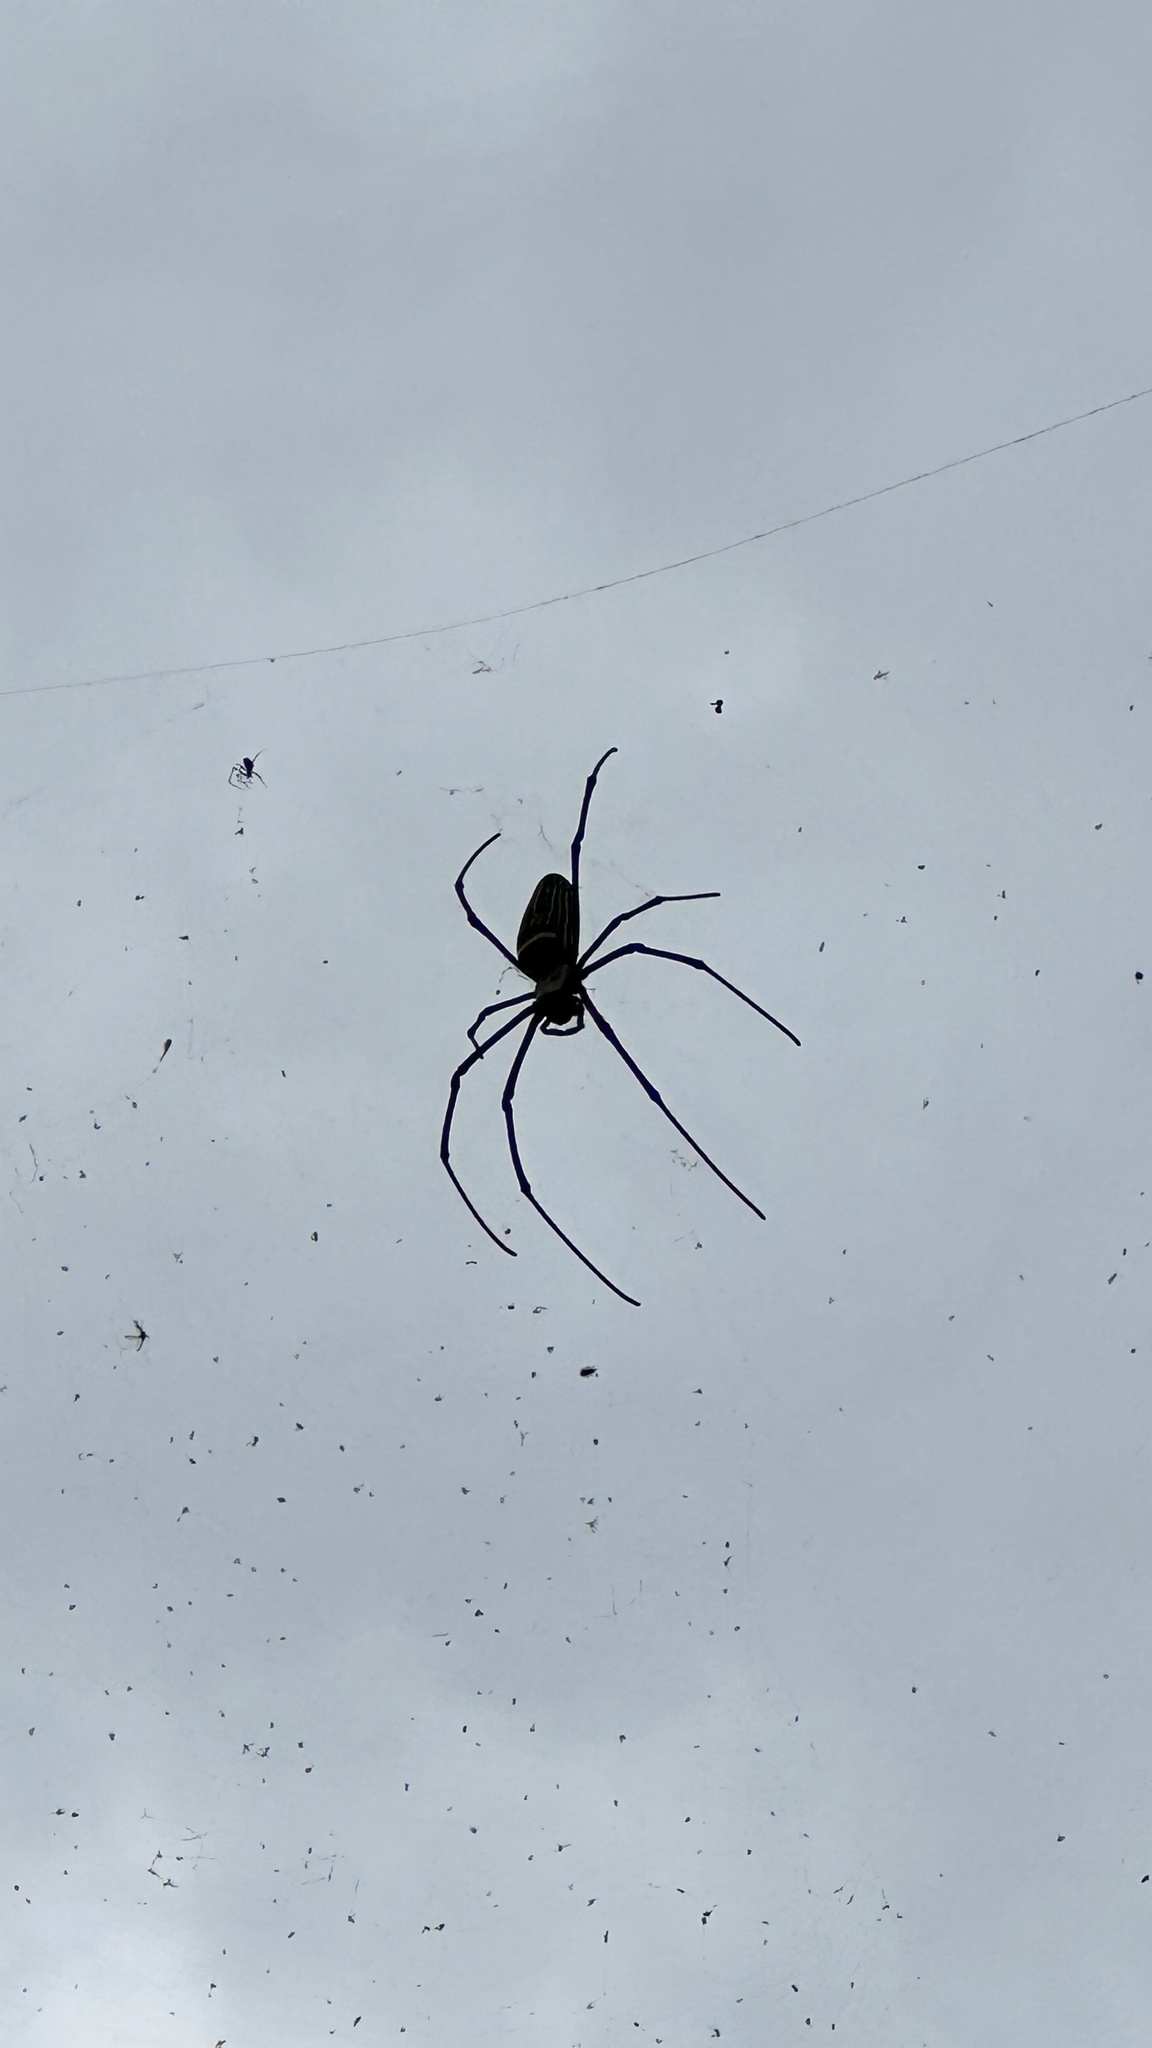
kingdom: Animalia
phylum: Arthropoda
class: Arachnida
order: Araneae
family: Araneidae
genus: Nephila
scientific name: Nephila pilipes
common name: Giant golden orb weaver
